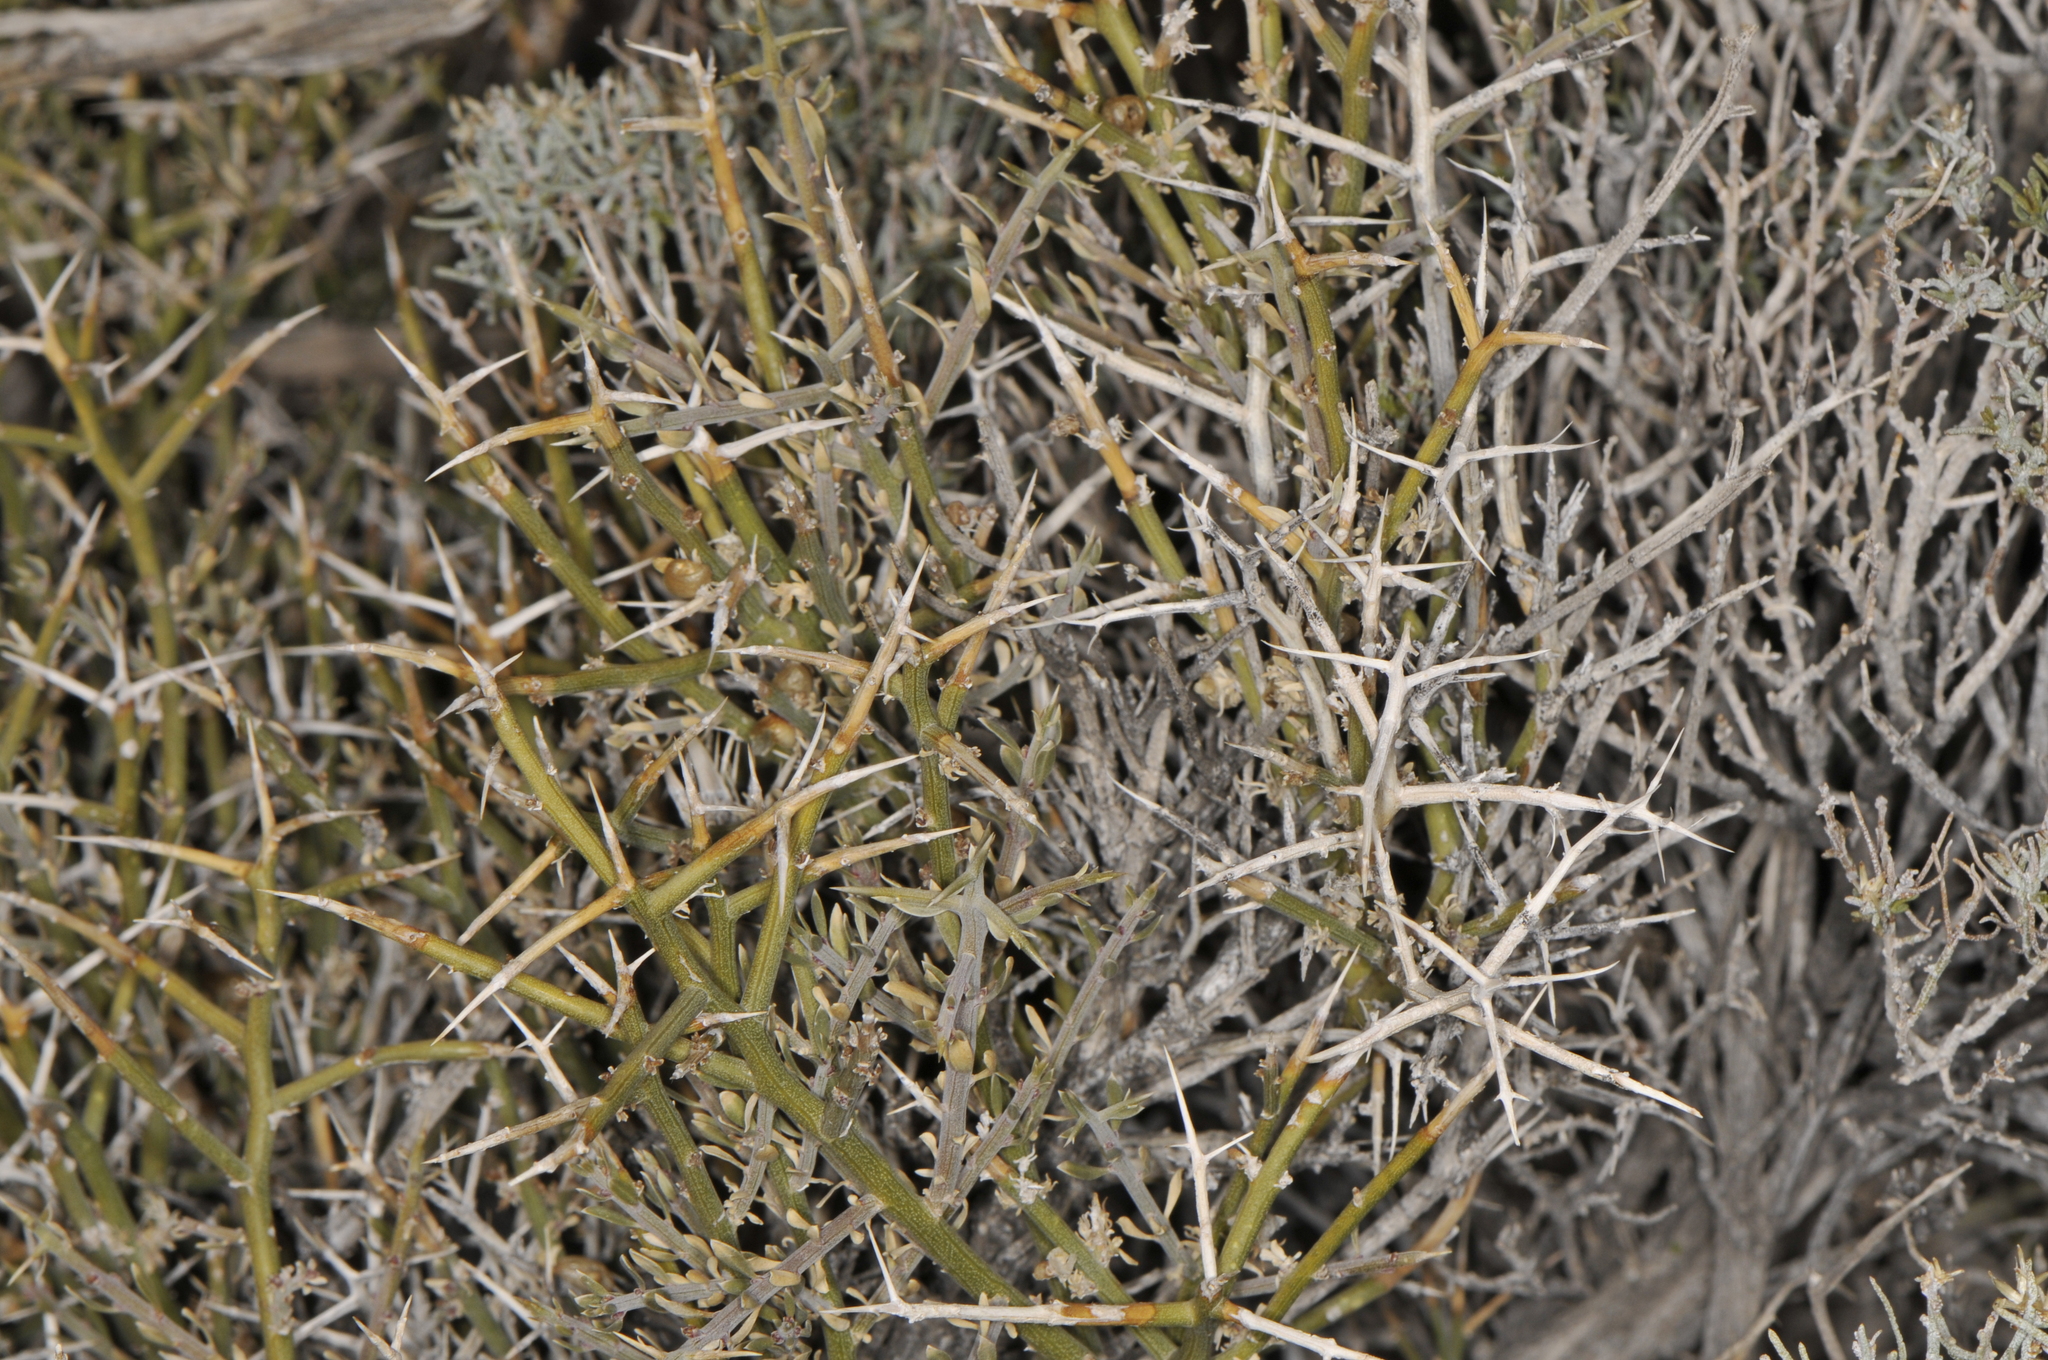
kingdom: Plantae
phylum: Tracheophyta
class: Magnoliopsida
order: Lamiales
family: Oleaceae
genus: Menodora
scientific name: Menodora spinescens
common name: Spiny menodora
